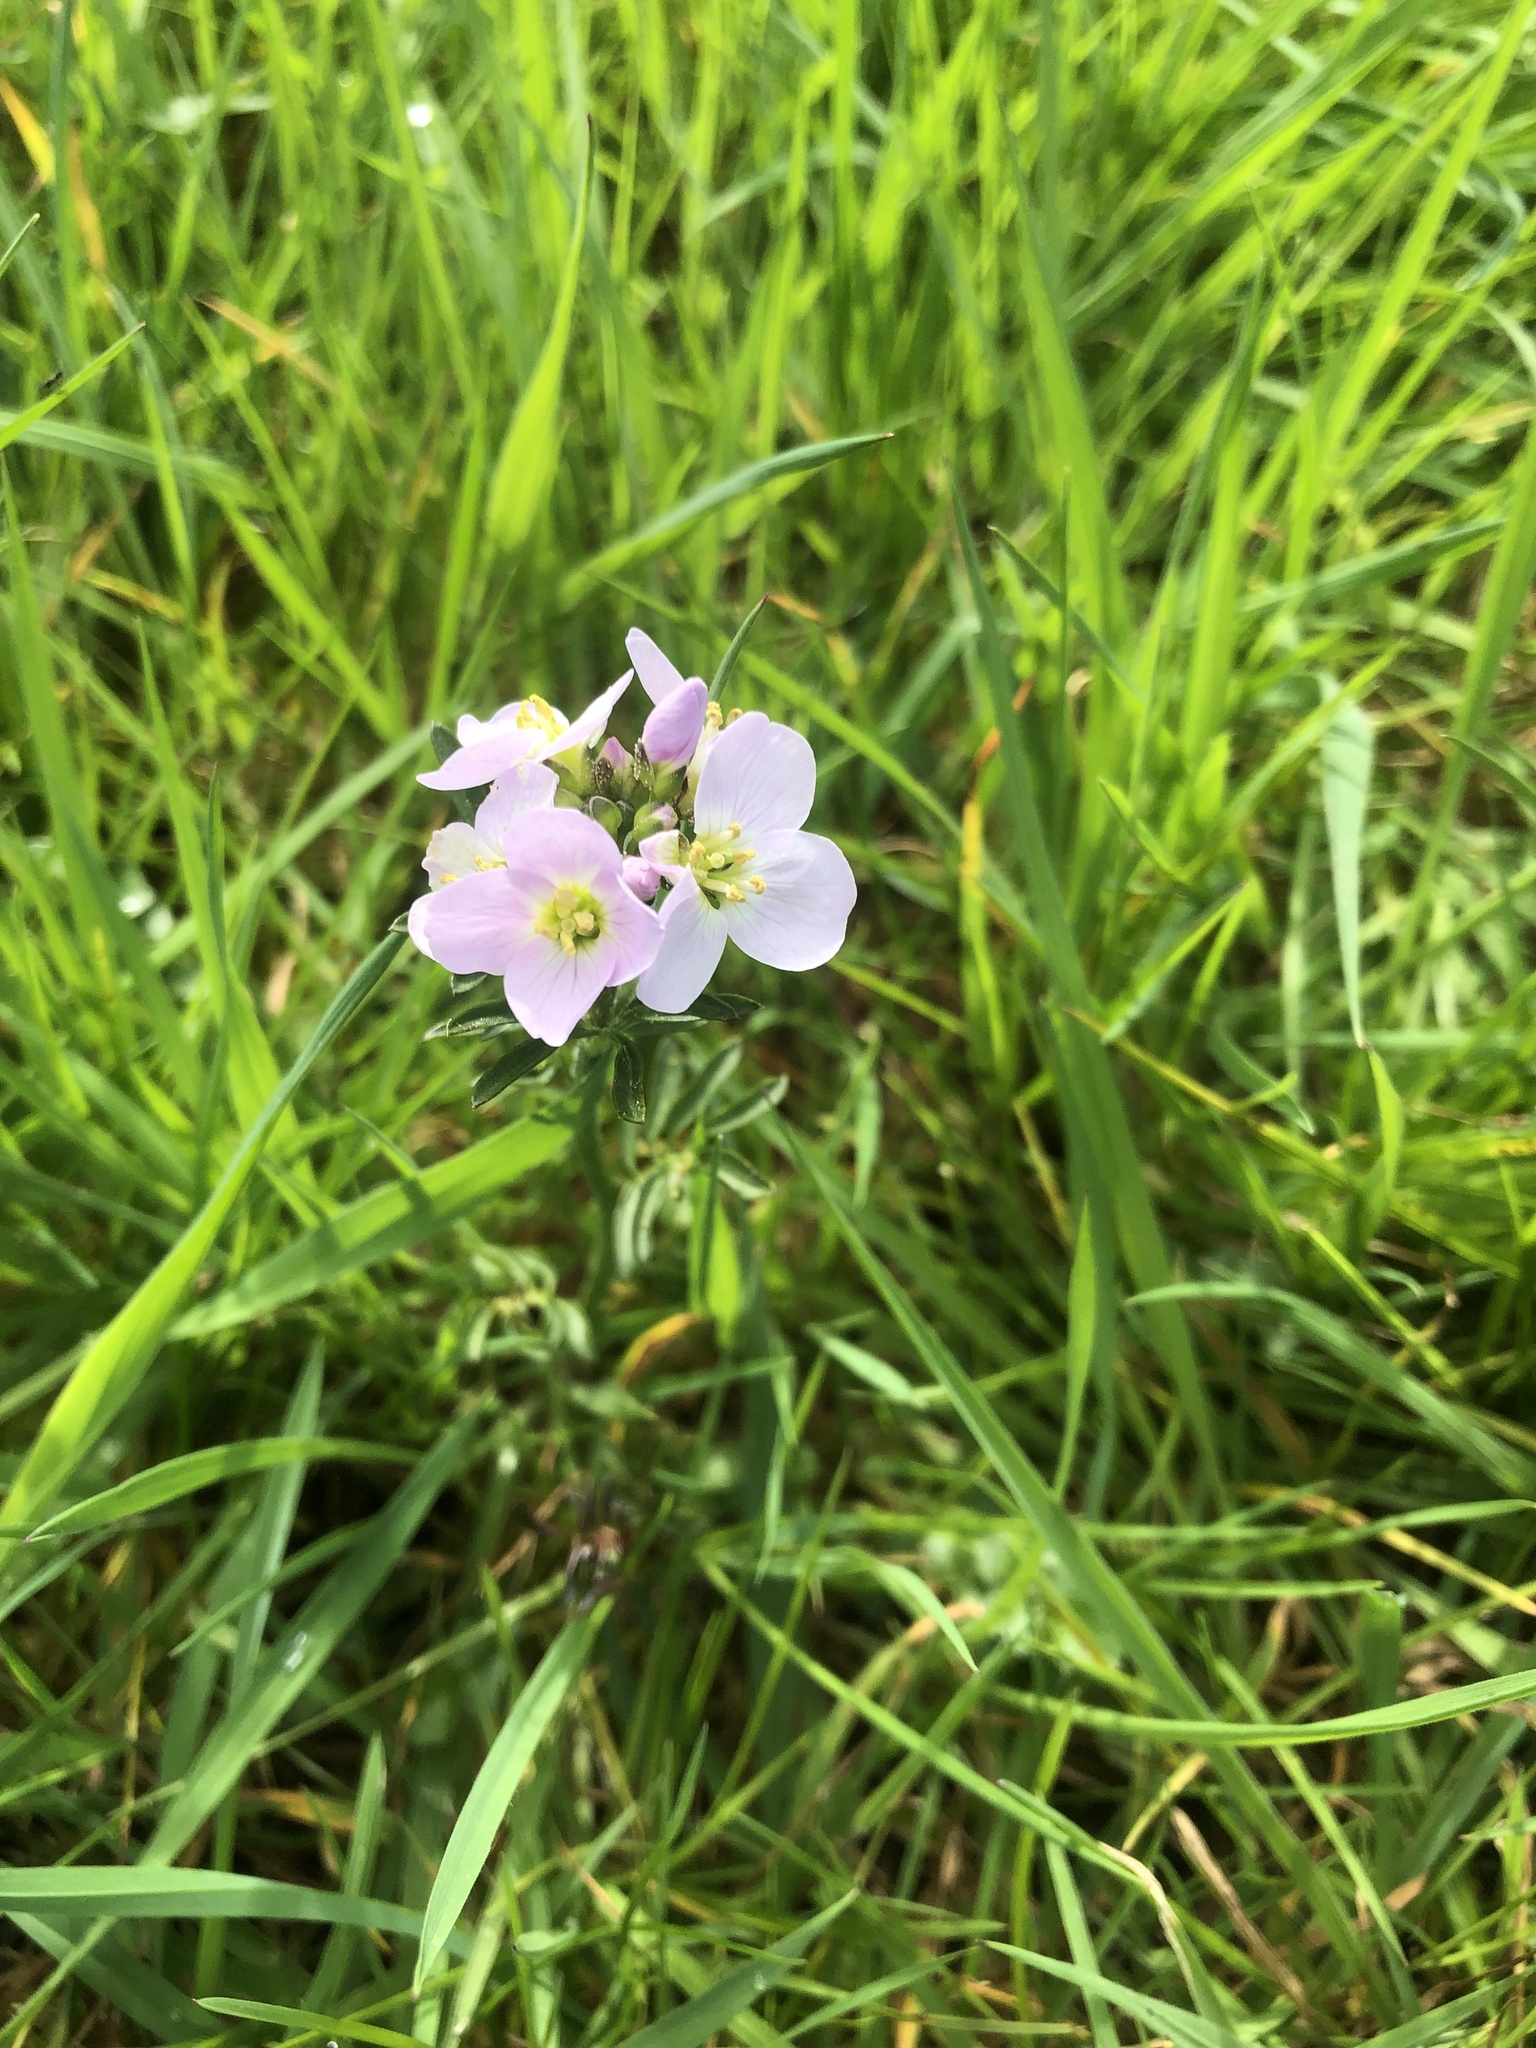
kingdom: Plantae
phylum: Tracheophyta
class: Magnoliopsida
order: Brassicales
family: Brassicaceae
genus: Cardamine
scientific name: Cardamine pratensis
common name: Cuckoo flower
